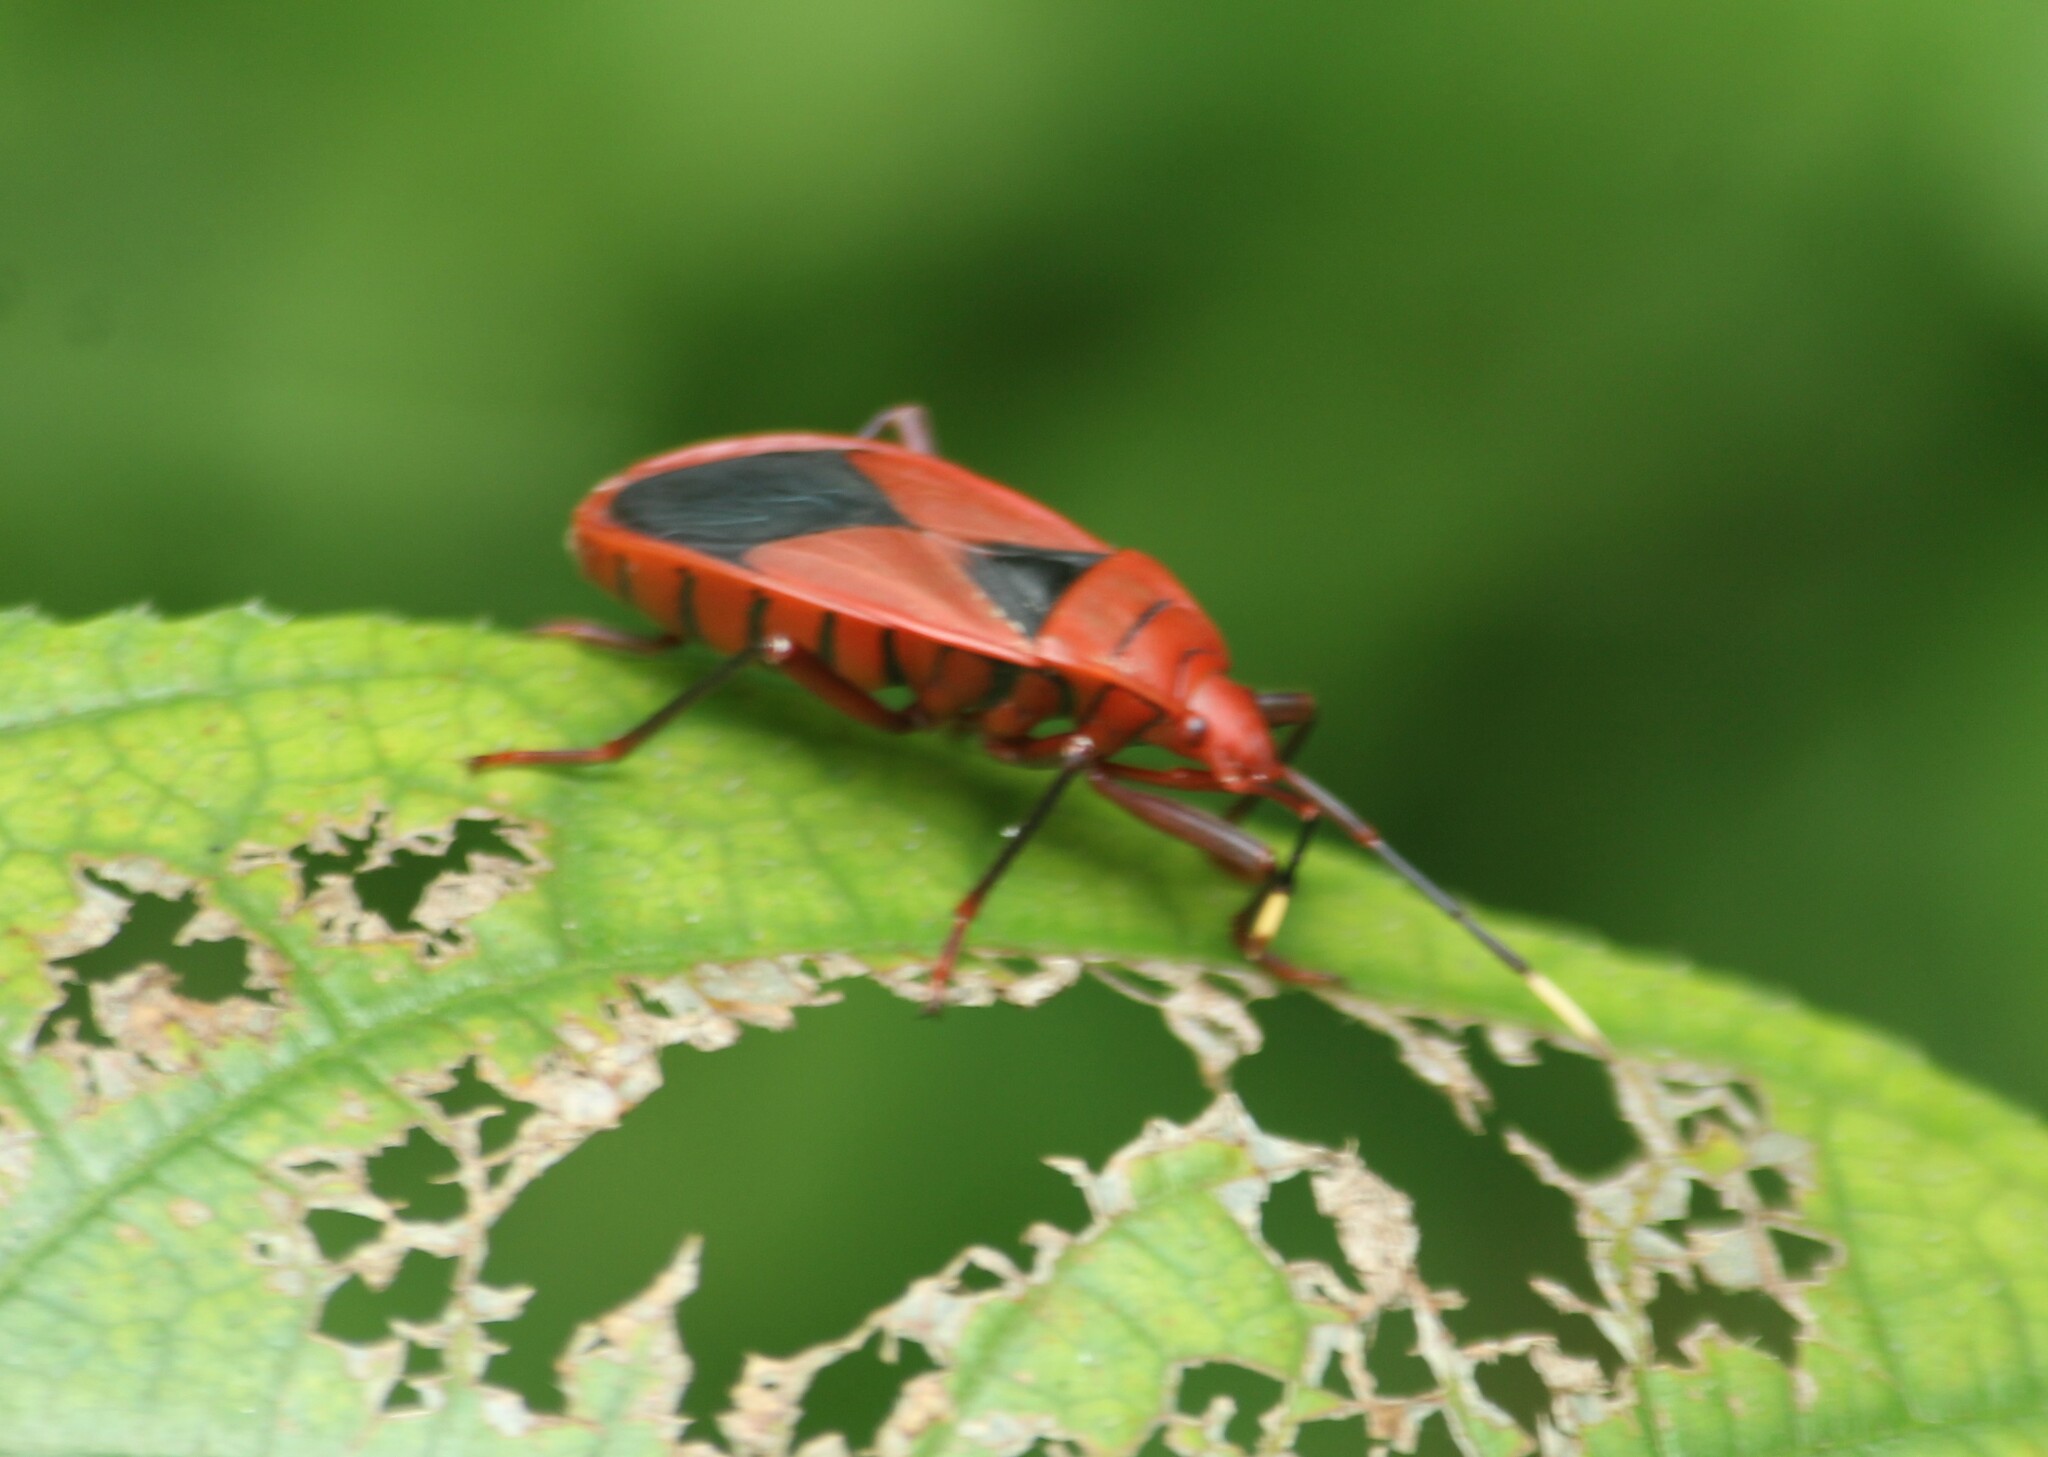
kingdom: Animalia
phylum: Arthropoda
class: Insecta
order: Hemiptera
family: Pyrrhocoridae
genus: Probergrothius
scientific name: Probergrothius
